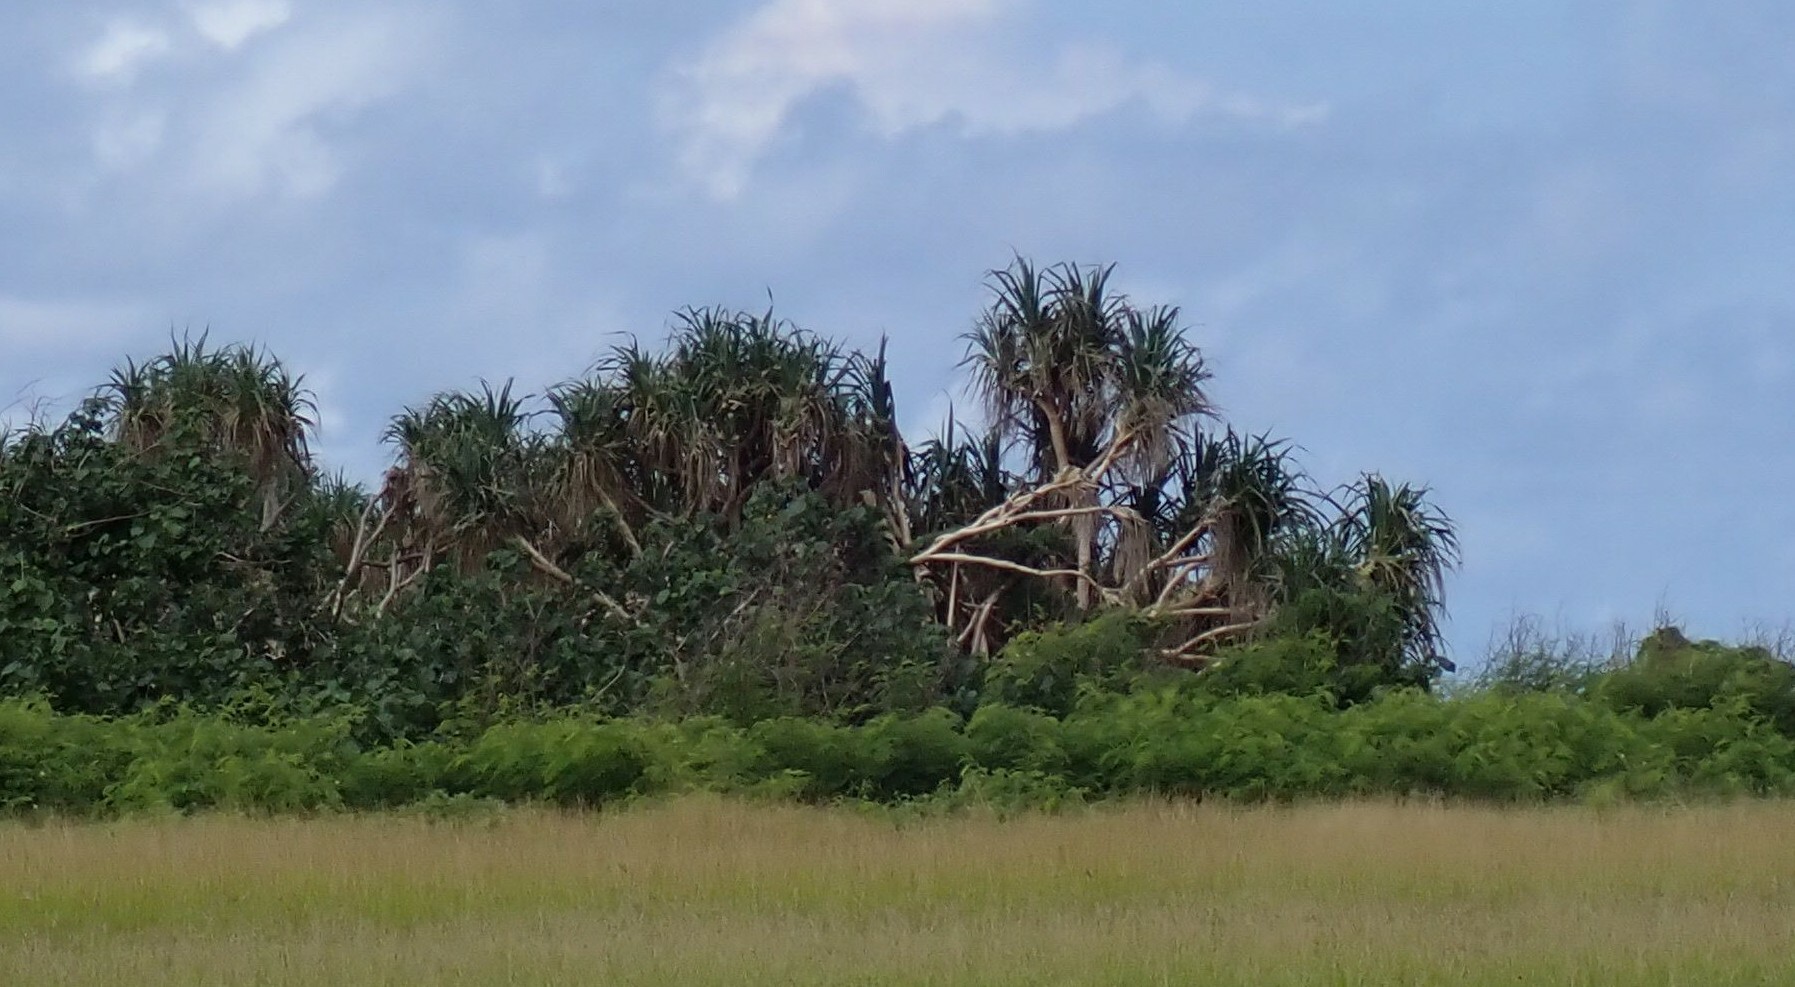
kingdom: Plantae
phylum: Tracheophyta
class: Liliopsida
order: Pandanales
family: Pandanaceae
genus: Pandanus
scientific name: Pandanus tectorius
